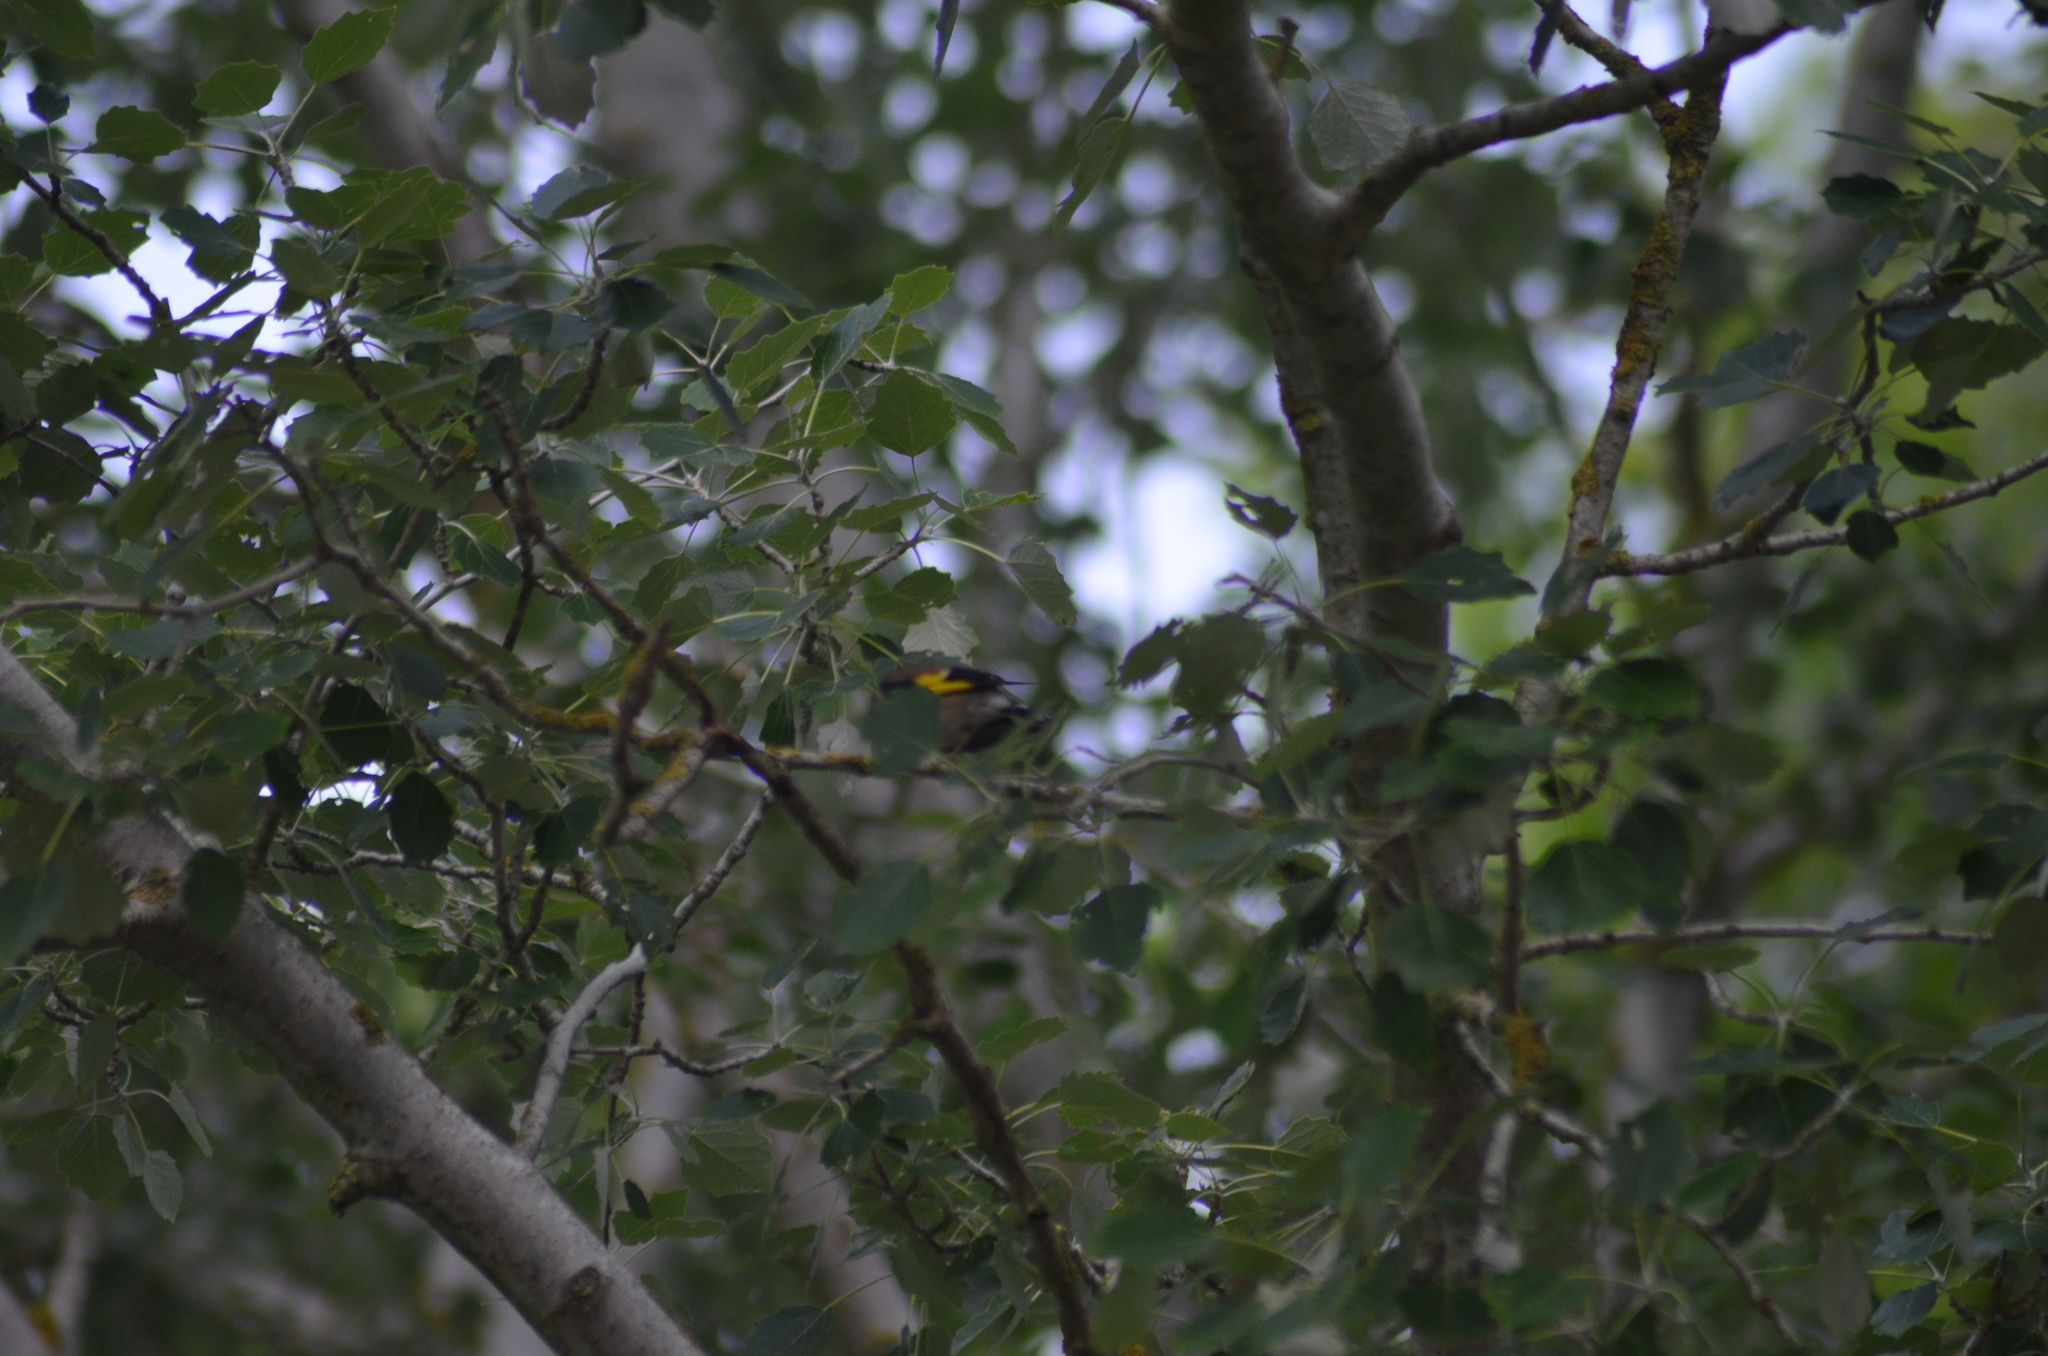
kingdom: Animalia
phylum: Chordata
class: Aves
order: Passeriformes
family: Fringillidae
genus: Carduelis
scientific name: Carduelis carduelis
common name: European goldfinch
